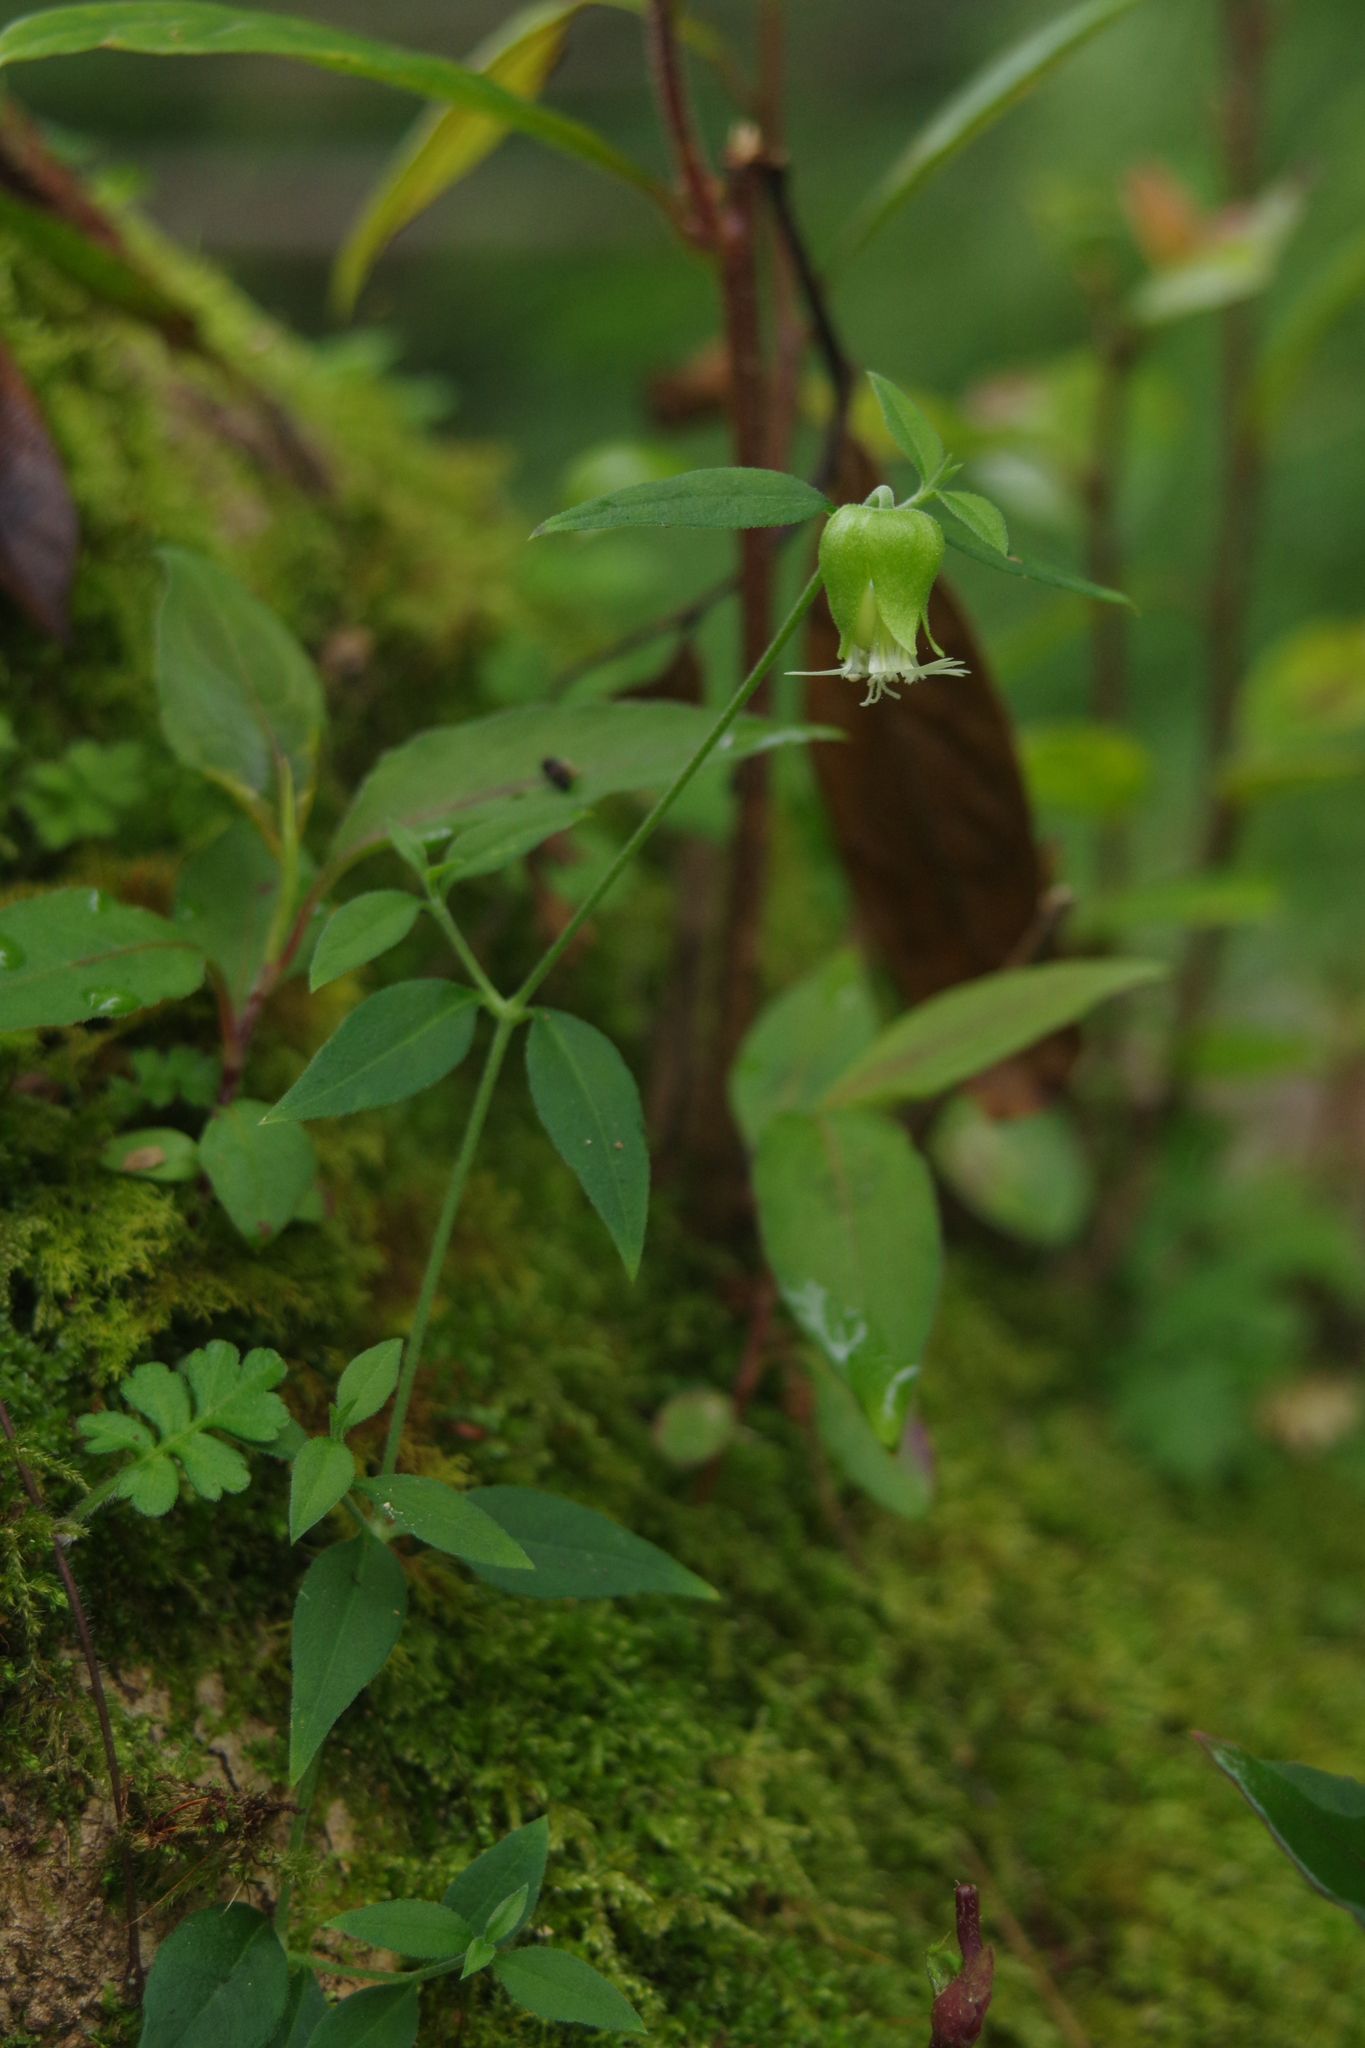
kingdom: Plantae
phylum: Tracheophyta
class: Magnoliopsida
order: Caryophyllales
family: Caryophyllaceae
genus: Silene
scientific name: Silene baccifera
